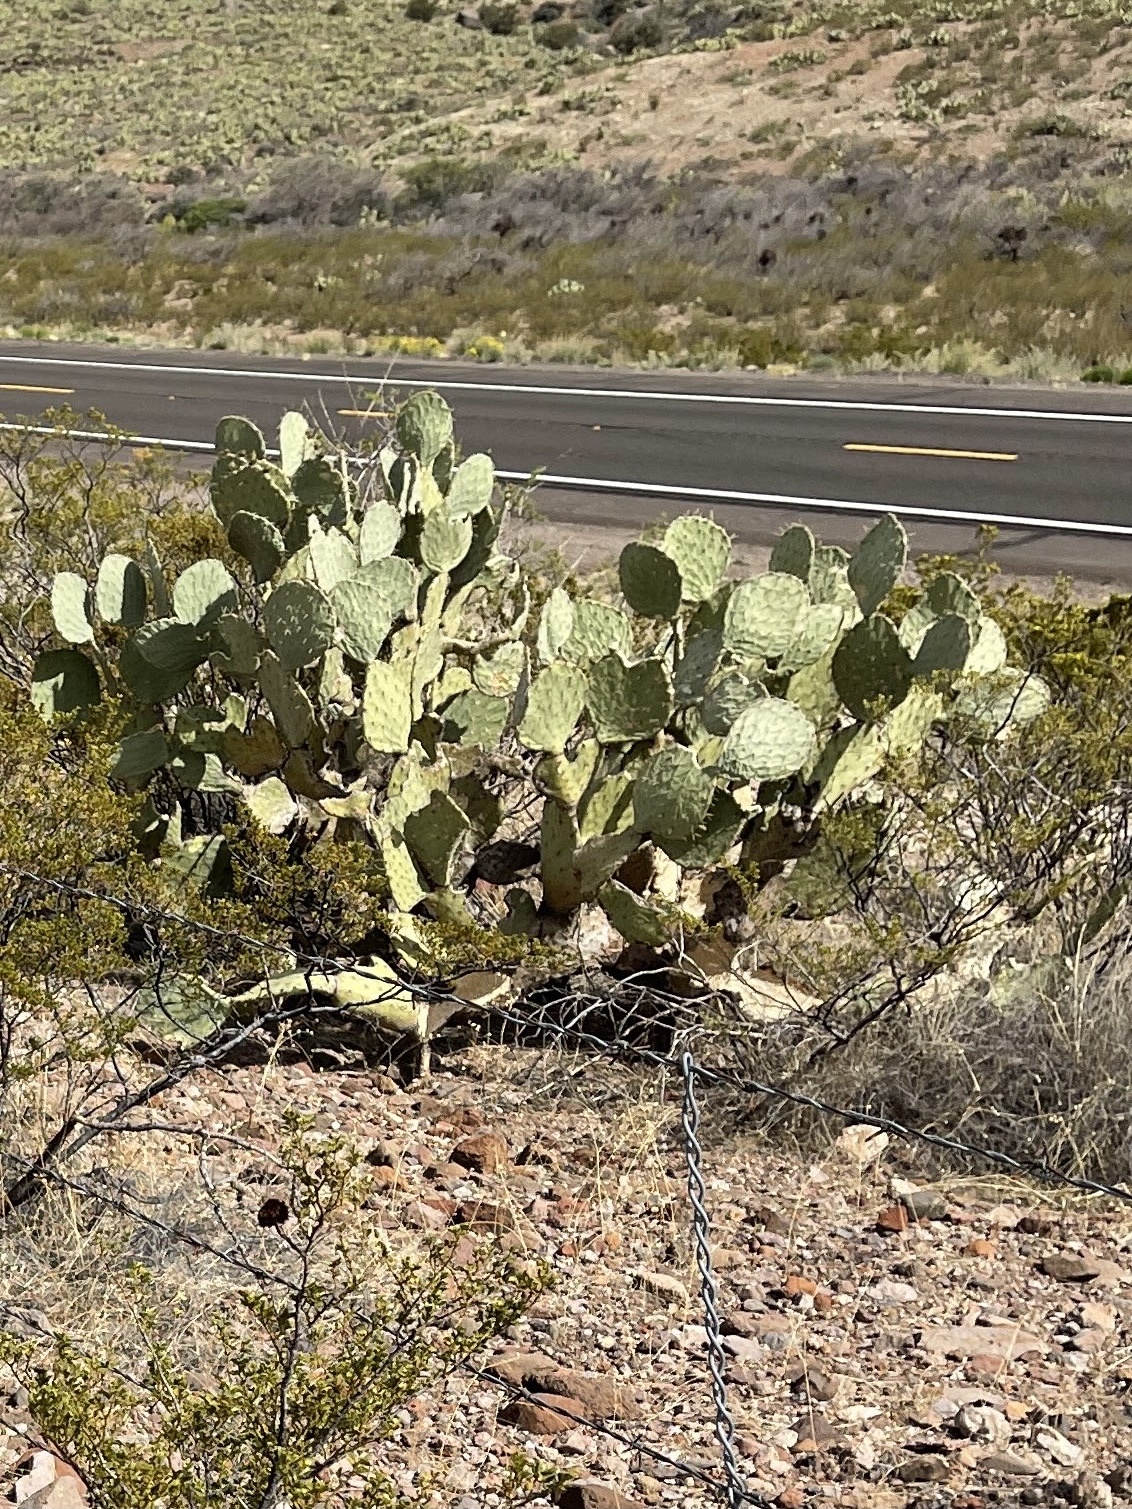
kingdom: Plantae
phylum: Tracheophyta
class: Magnoliopsida
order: Caryophyllales
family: Cactaceae
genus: Opuntia
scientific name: Opuntia engelmannii
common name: Cactus-apple
